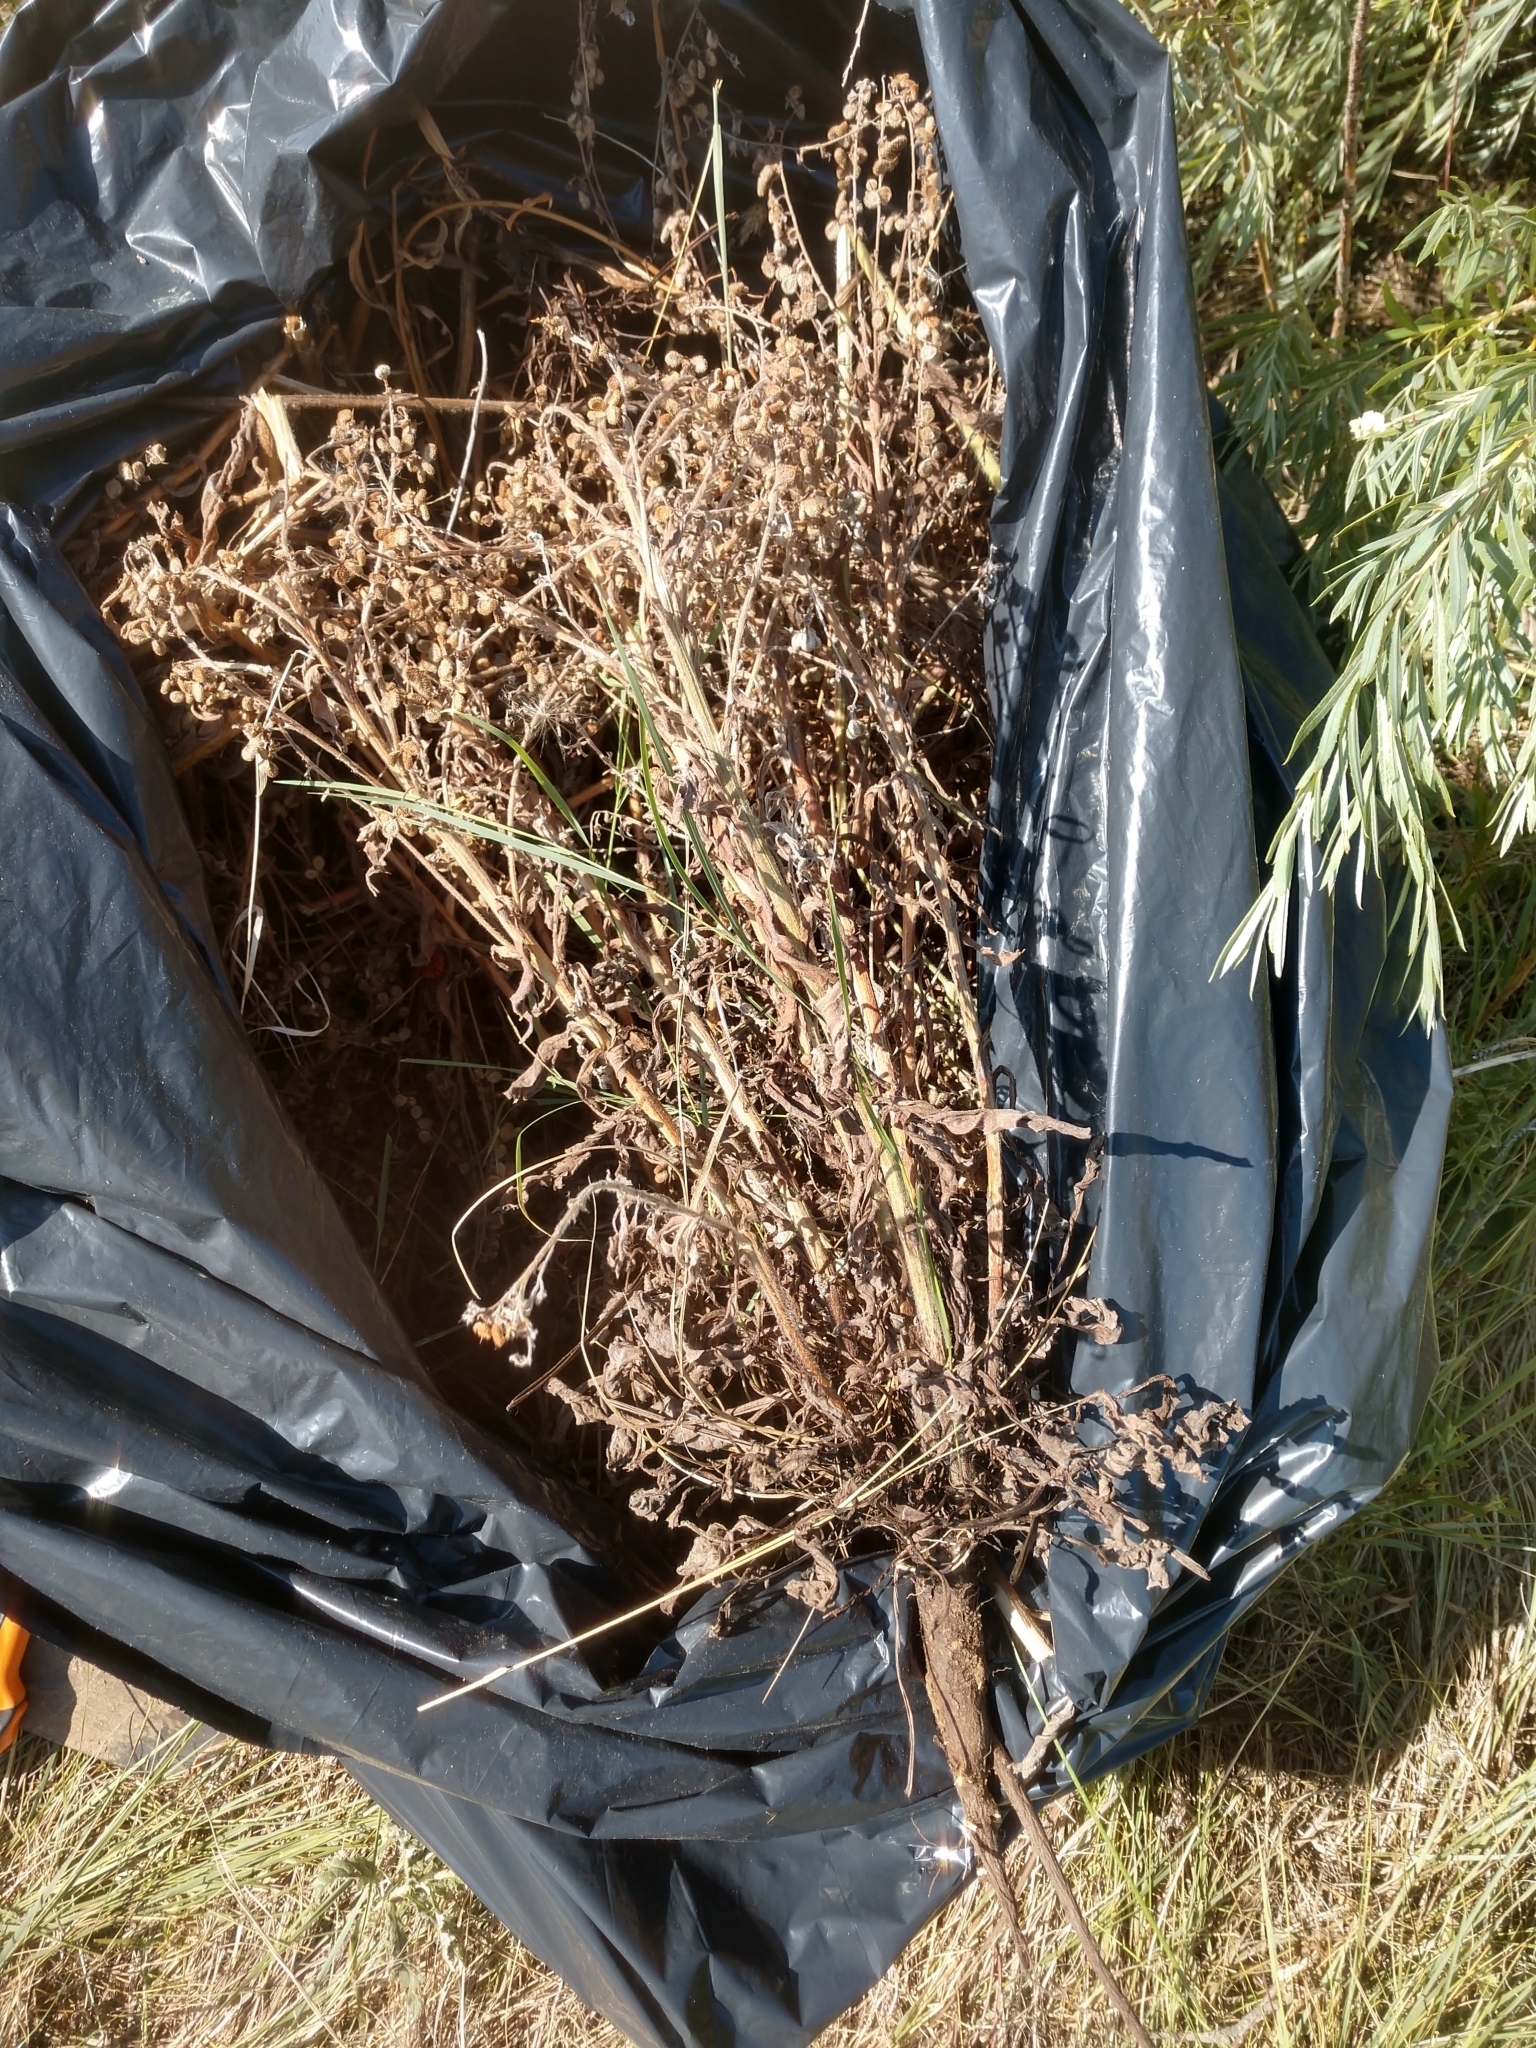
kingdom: Plantae
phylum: Tracheophyta
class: Magnoliopsida
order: Boraginales
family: Boraginaceae
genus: Cynoglossum
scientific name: Cynoglossum officinale
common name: Hound's-tongue
